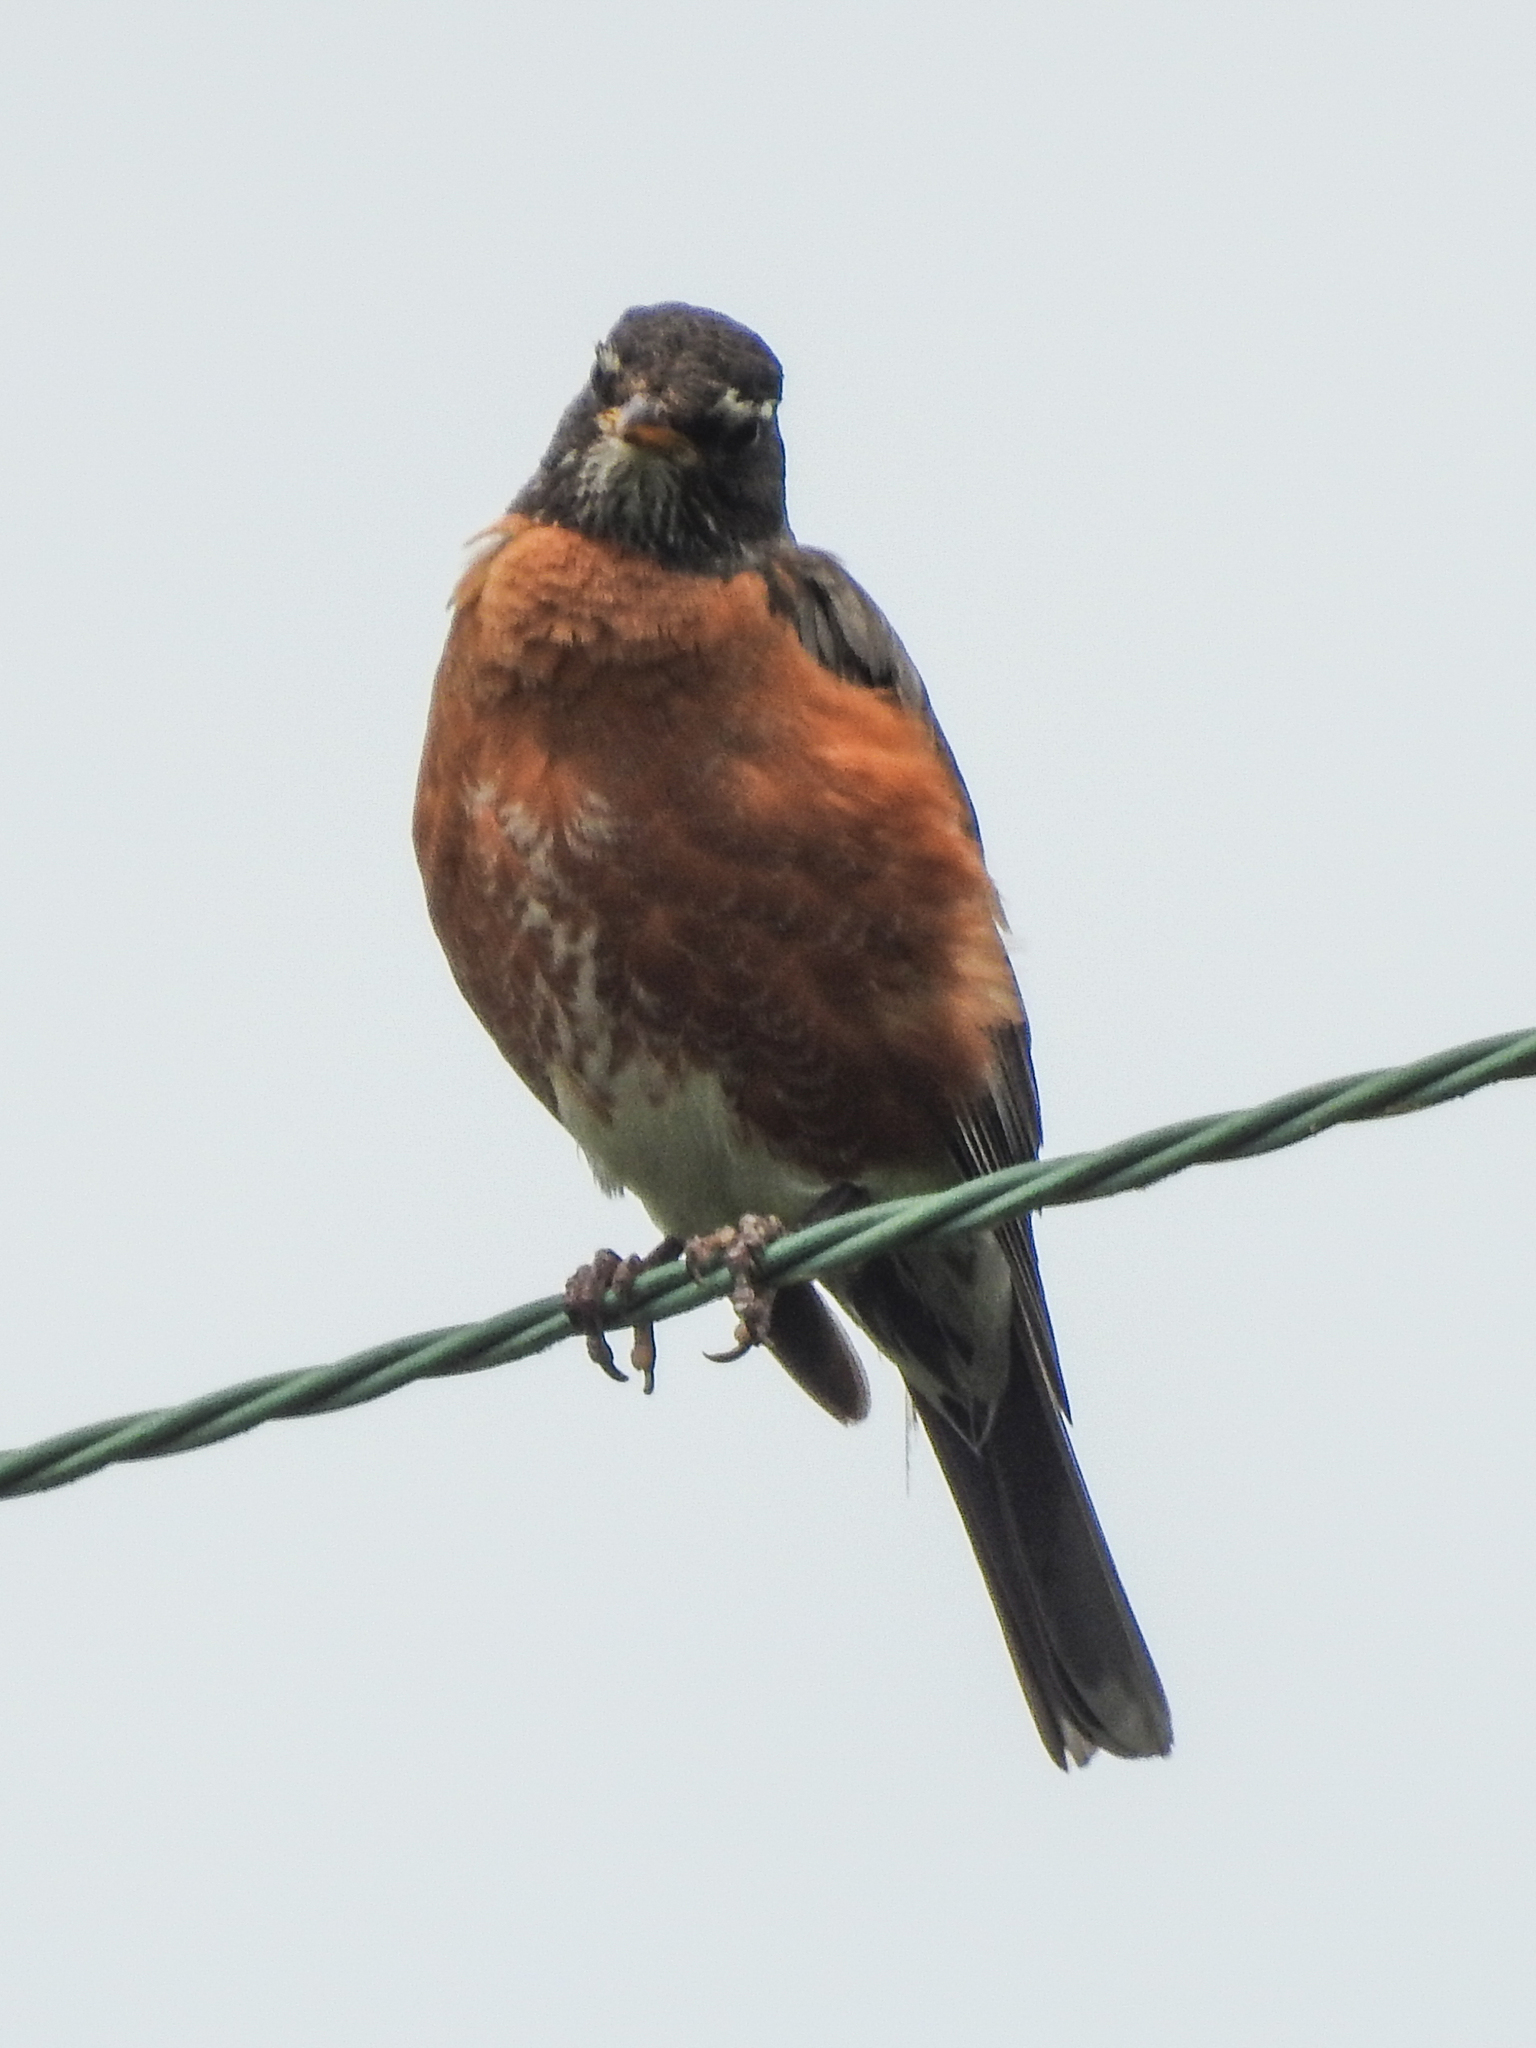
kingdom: Animalia
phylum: Chordata
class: Aves
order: Passeriformes
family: Turdidae
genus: Turdus
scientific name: Turdus migratorius
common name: American robin
